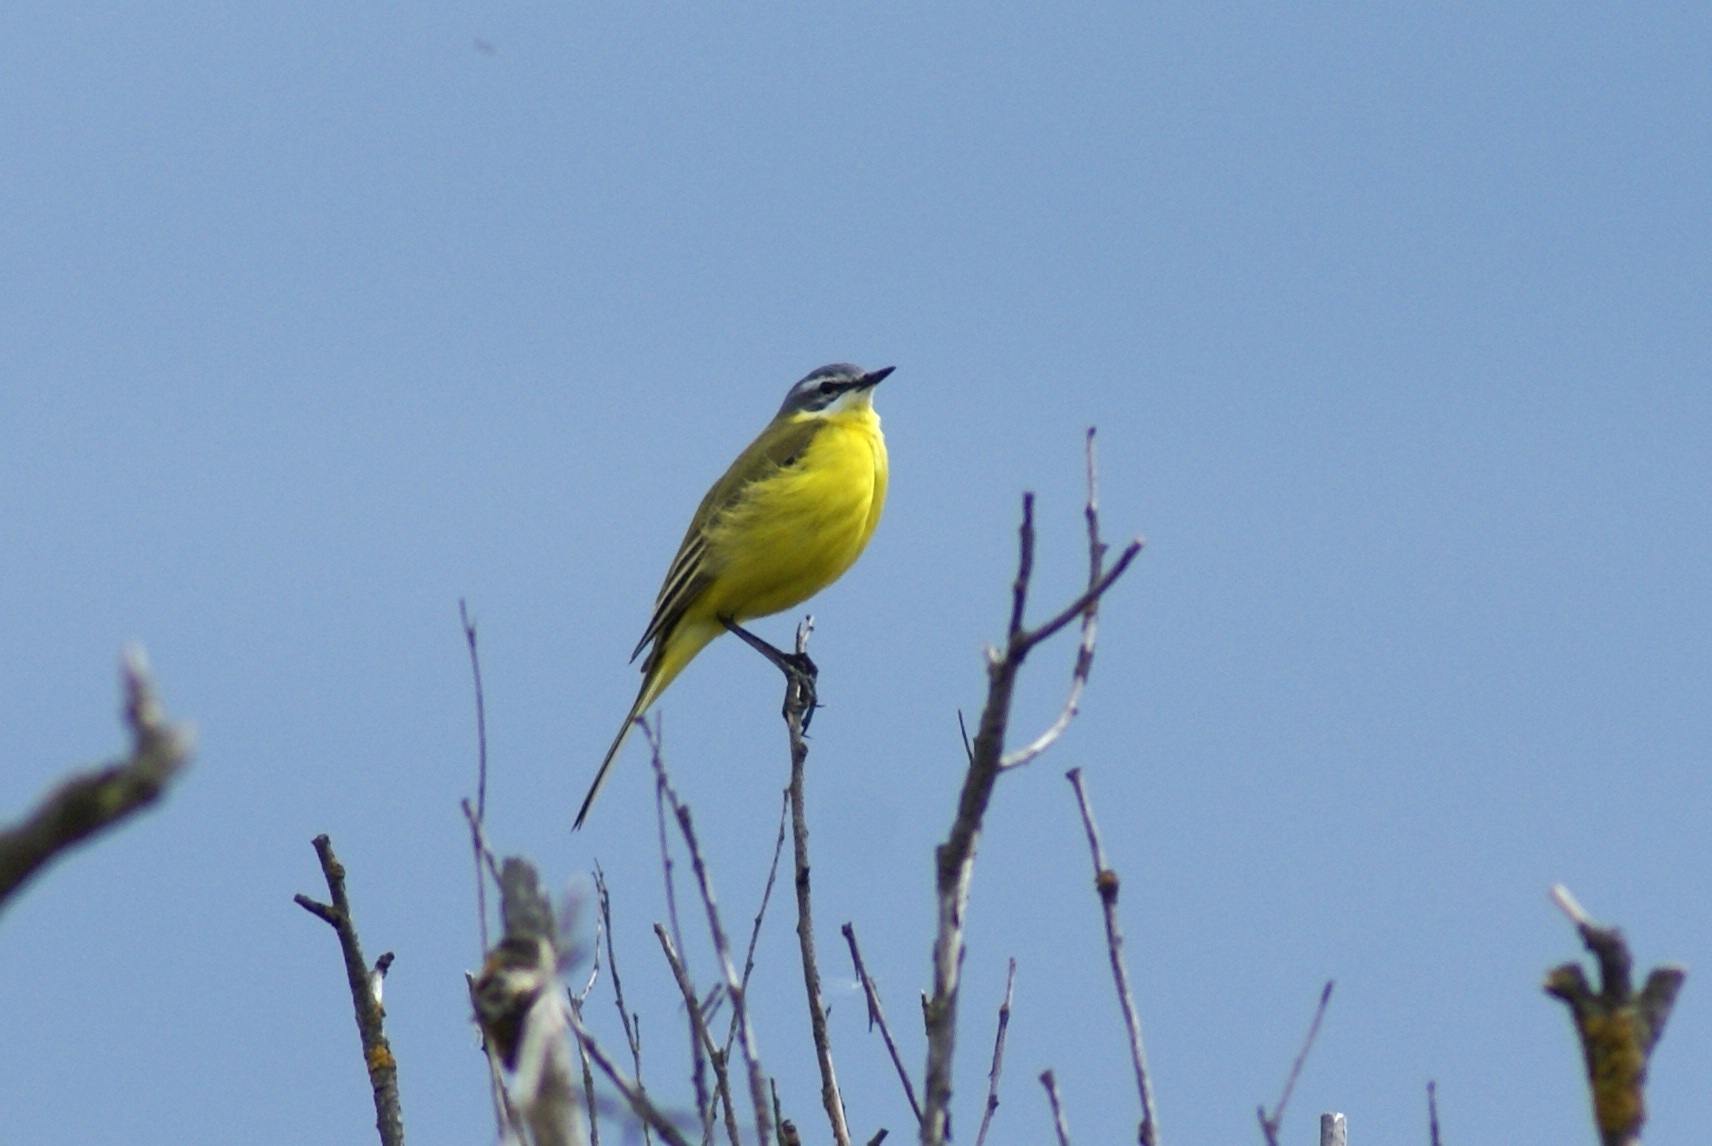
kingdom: Animalia
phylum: Chordata
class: Aves
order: Passeriformes
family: Motacillidae
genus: Motacilla
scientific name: Motacilla flava
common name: Western yellow wagtail
